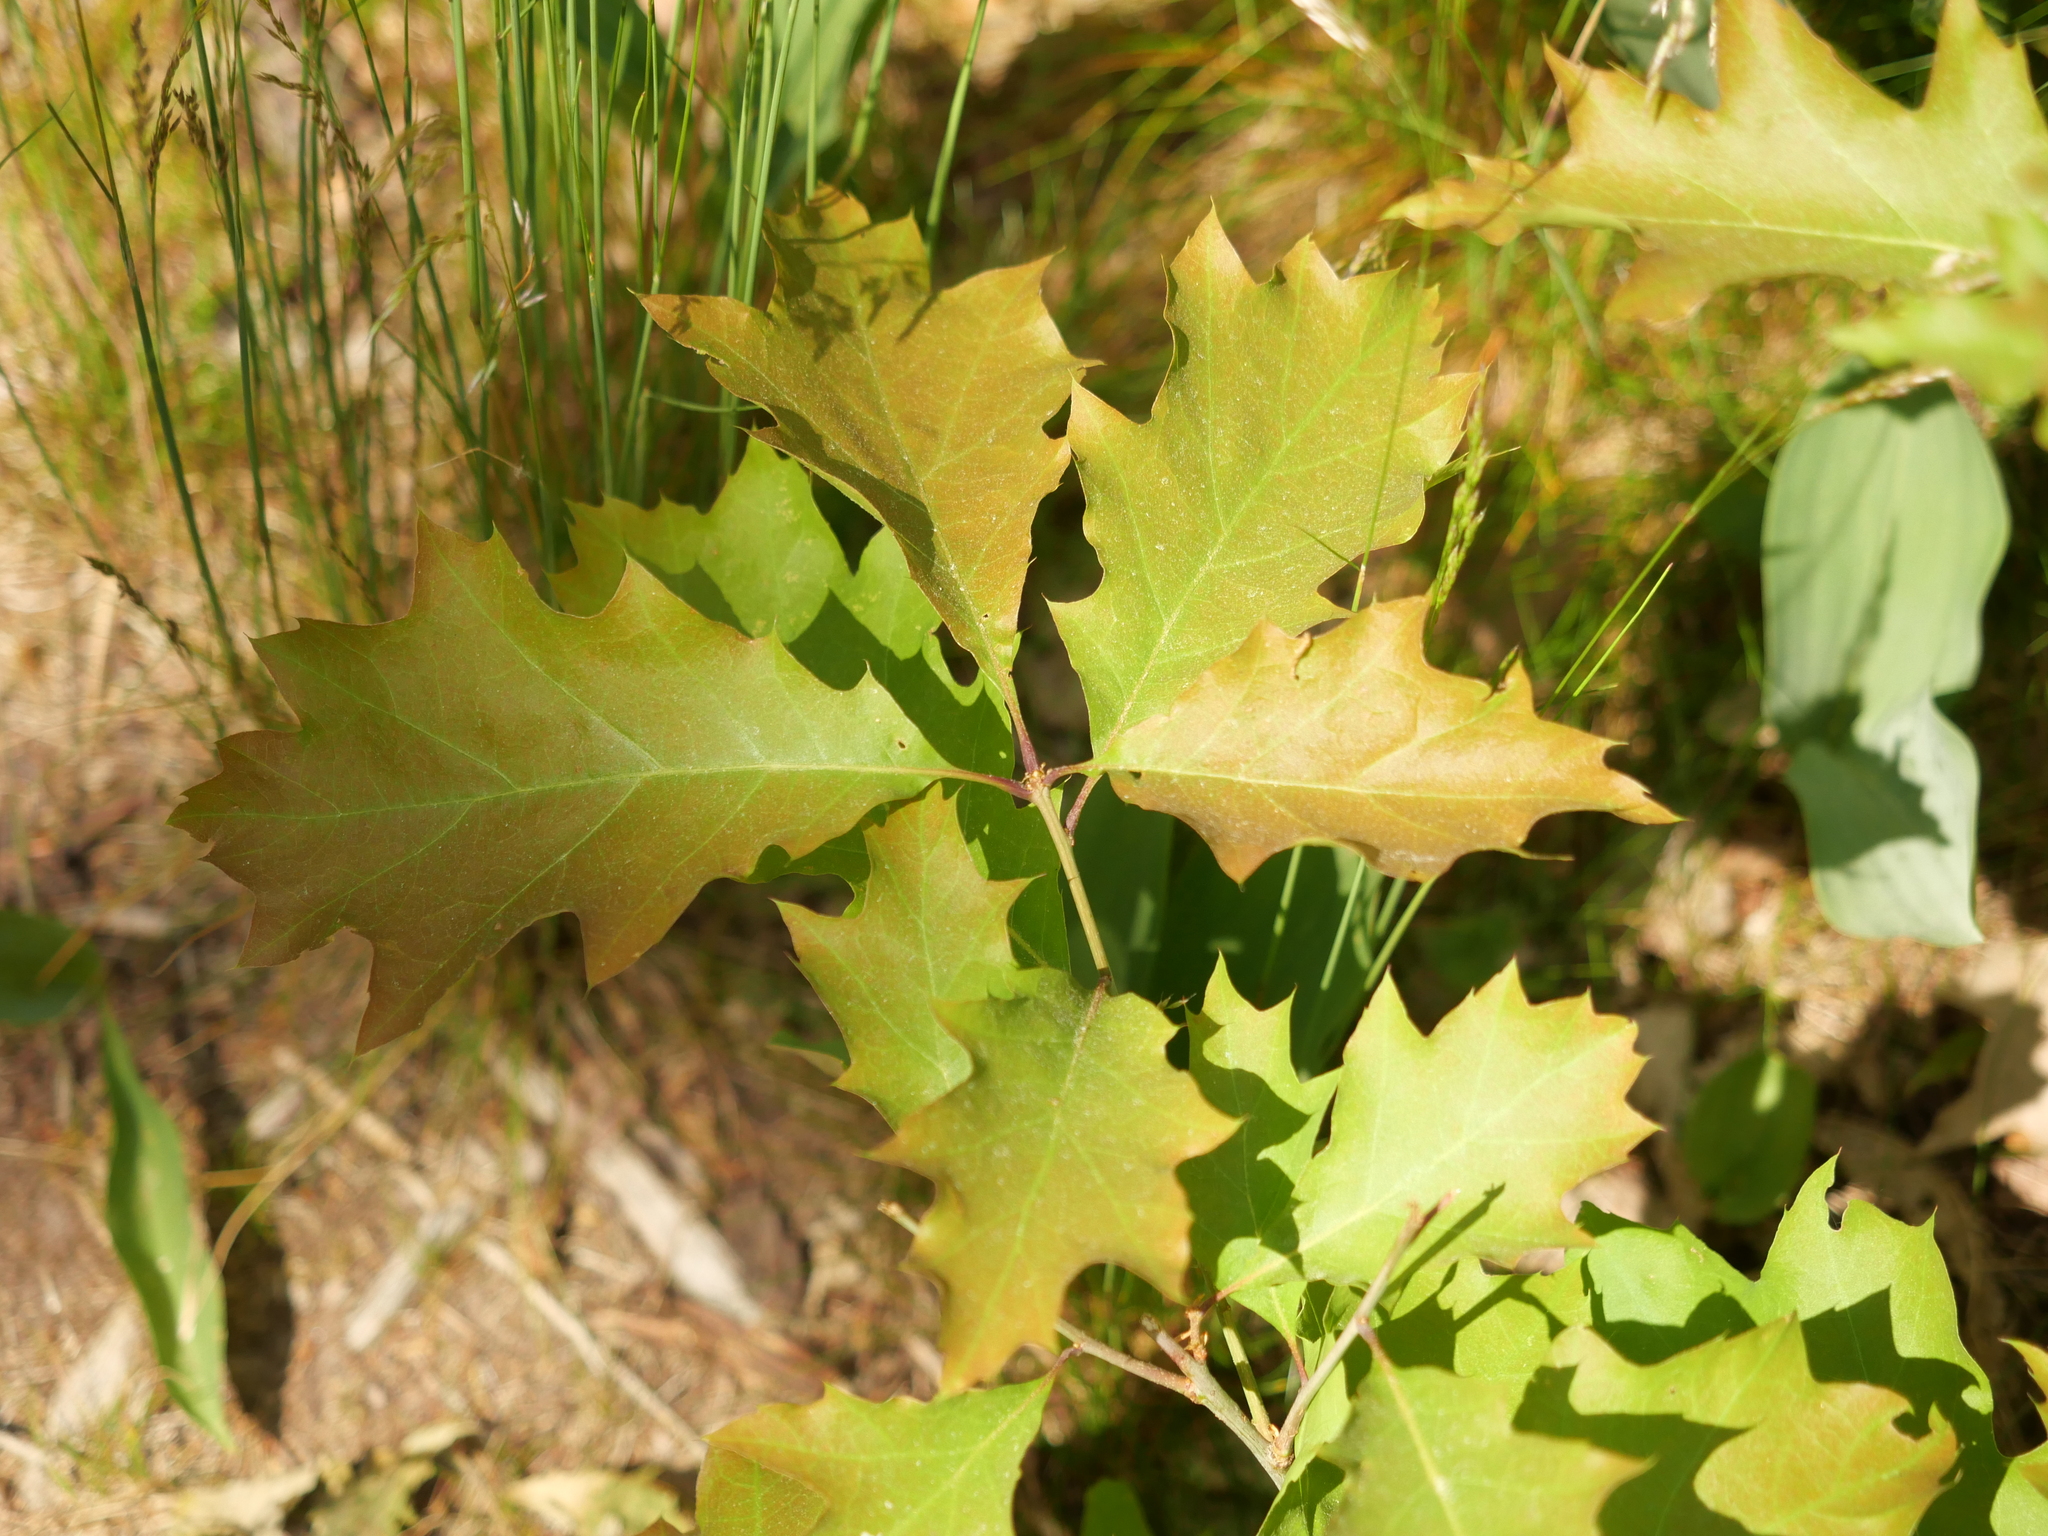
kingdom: Plantae
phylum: Tracheophyta
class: Magnoliopsida
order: Fagales
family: Fagaceae
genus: Quercus
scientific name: Quercus rubra
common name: Red oak
